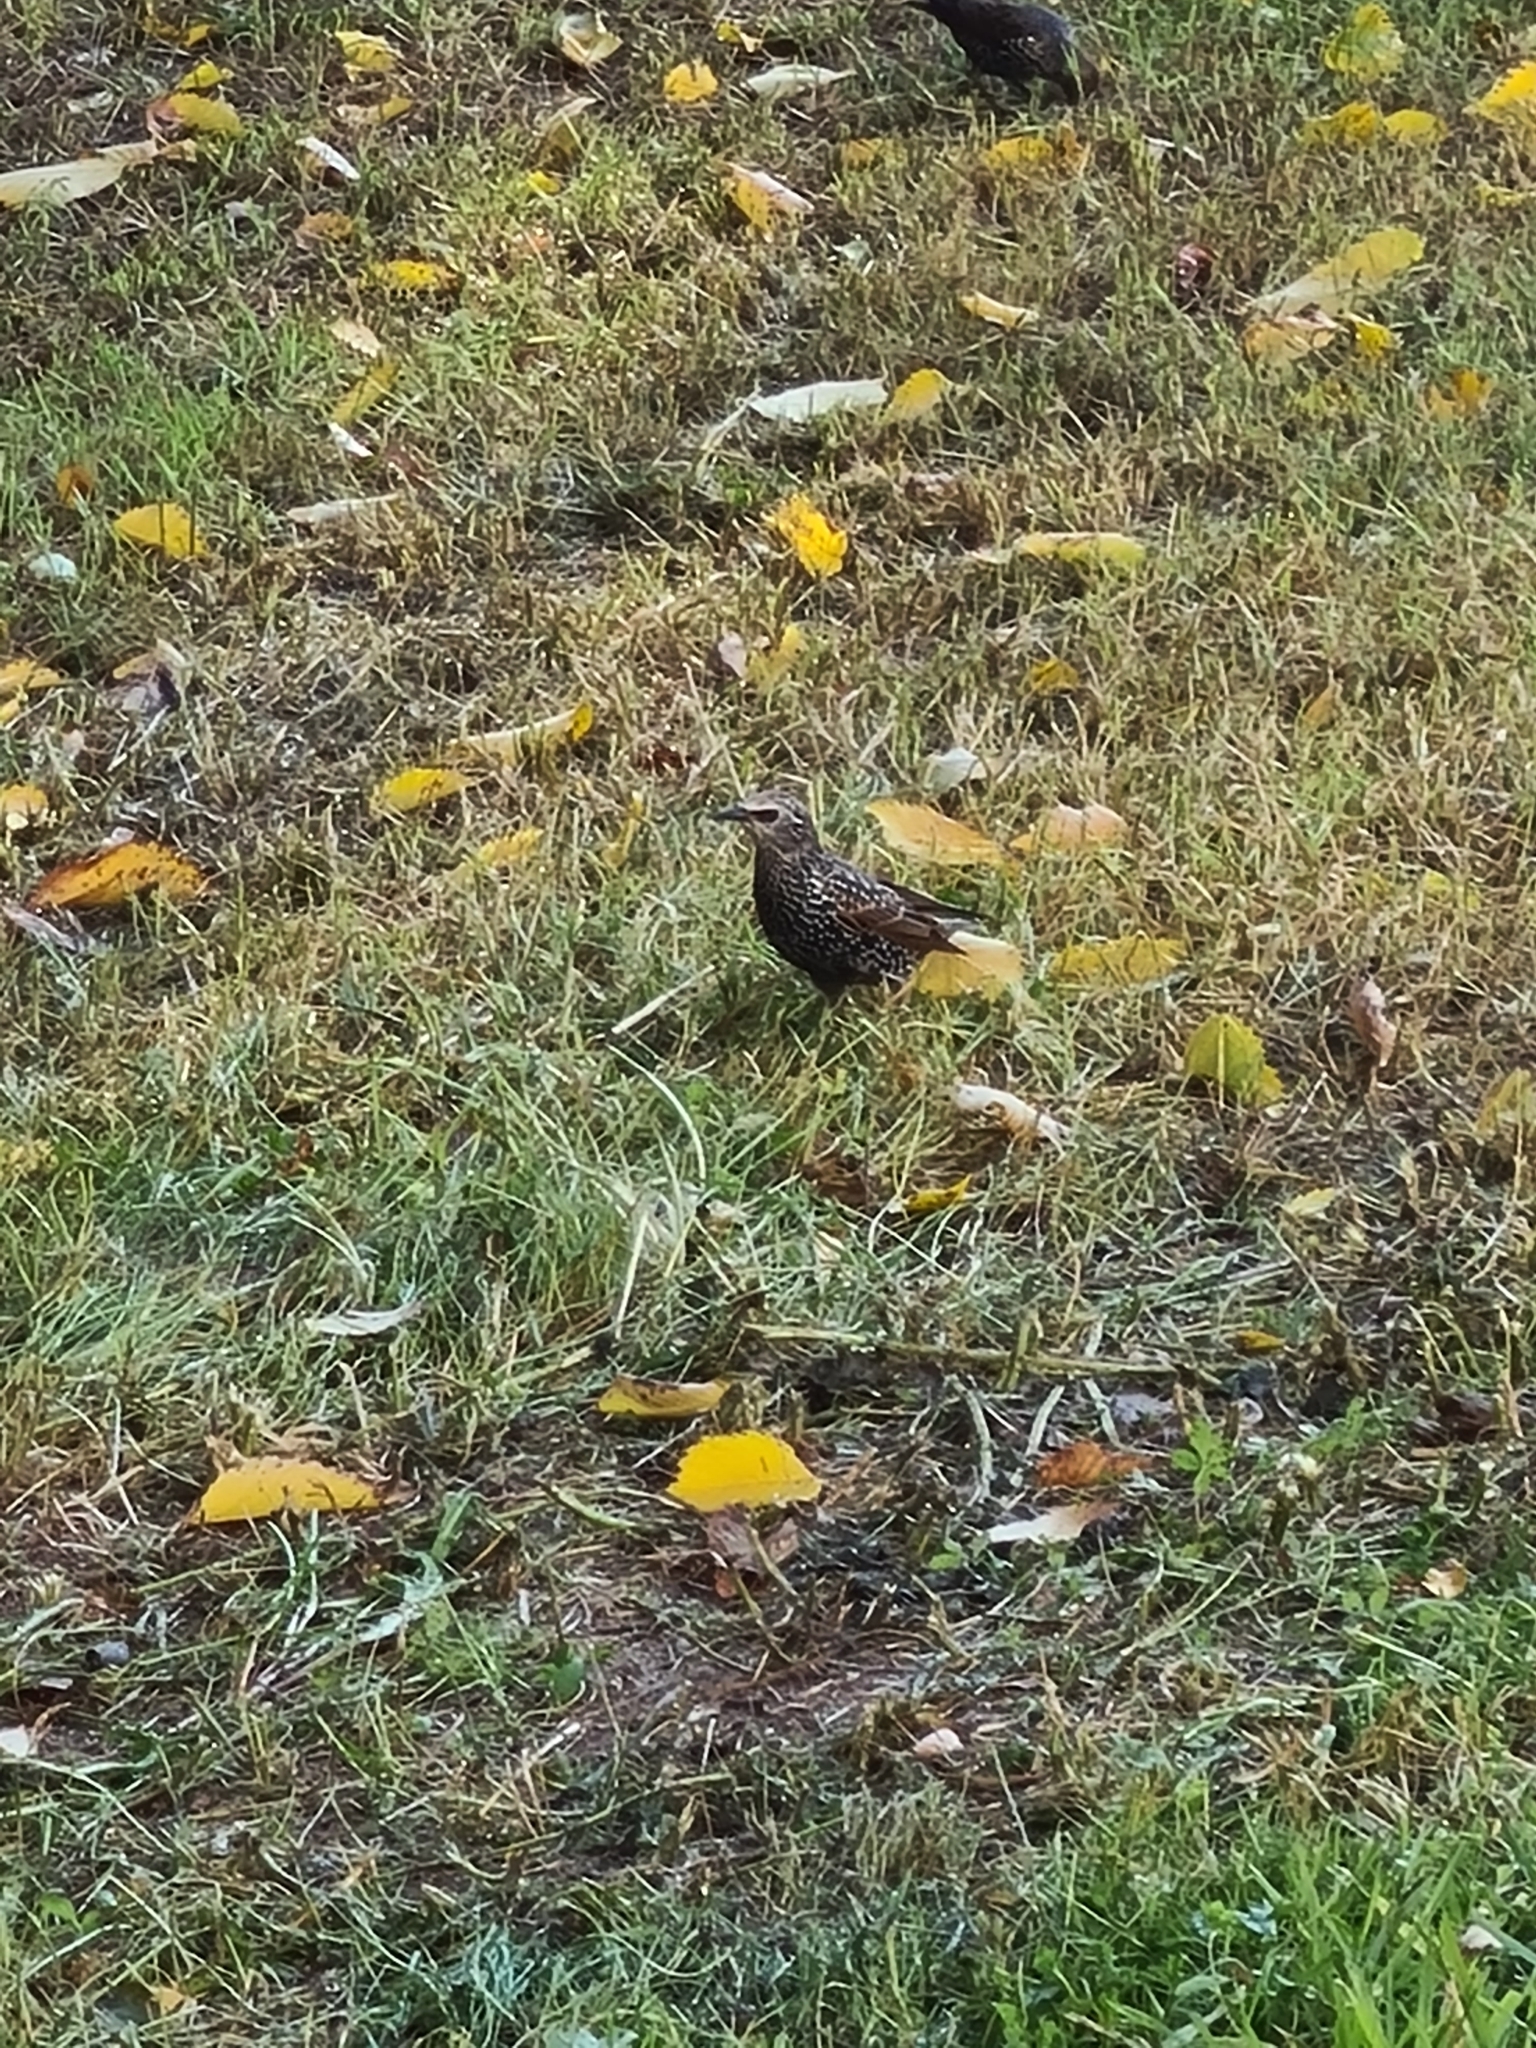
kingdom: Animalia
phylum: Chordata
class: Aves
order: Passeriformes
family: Sturnidae
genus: Sturnus
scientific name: Sturnus vulgaris
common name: Common starling
